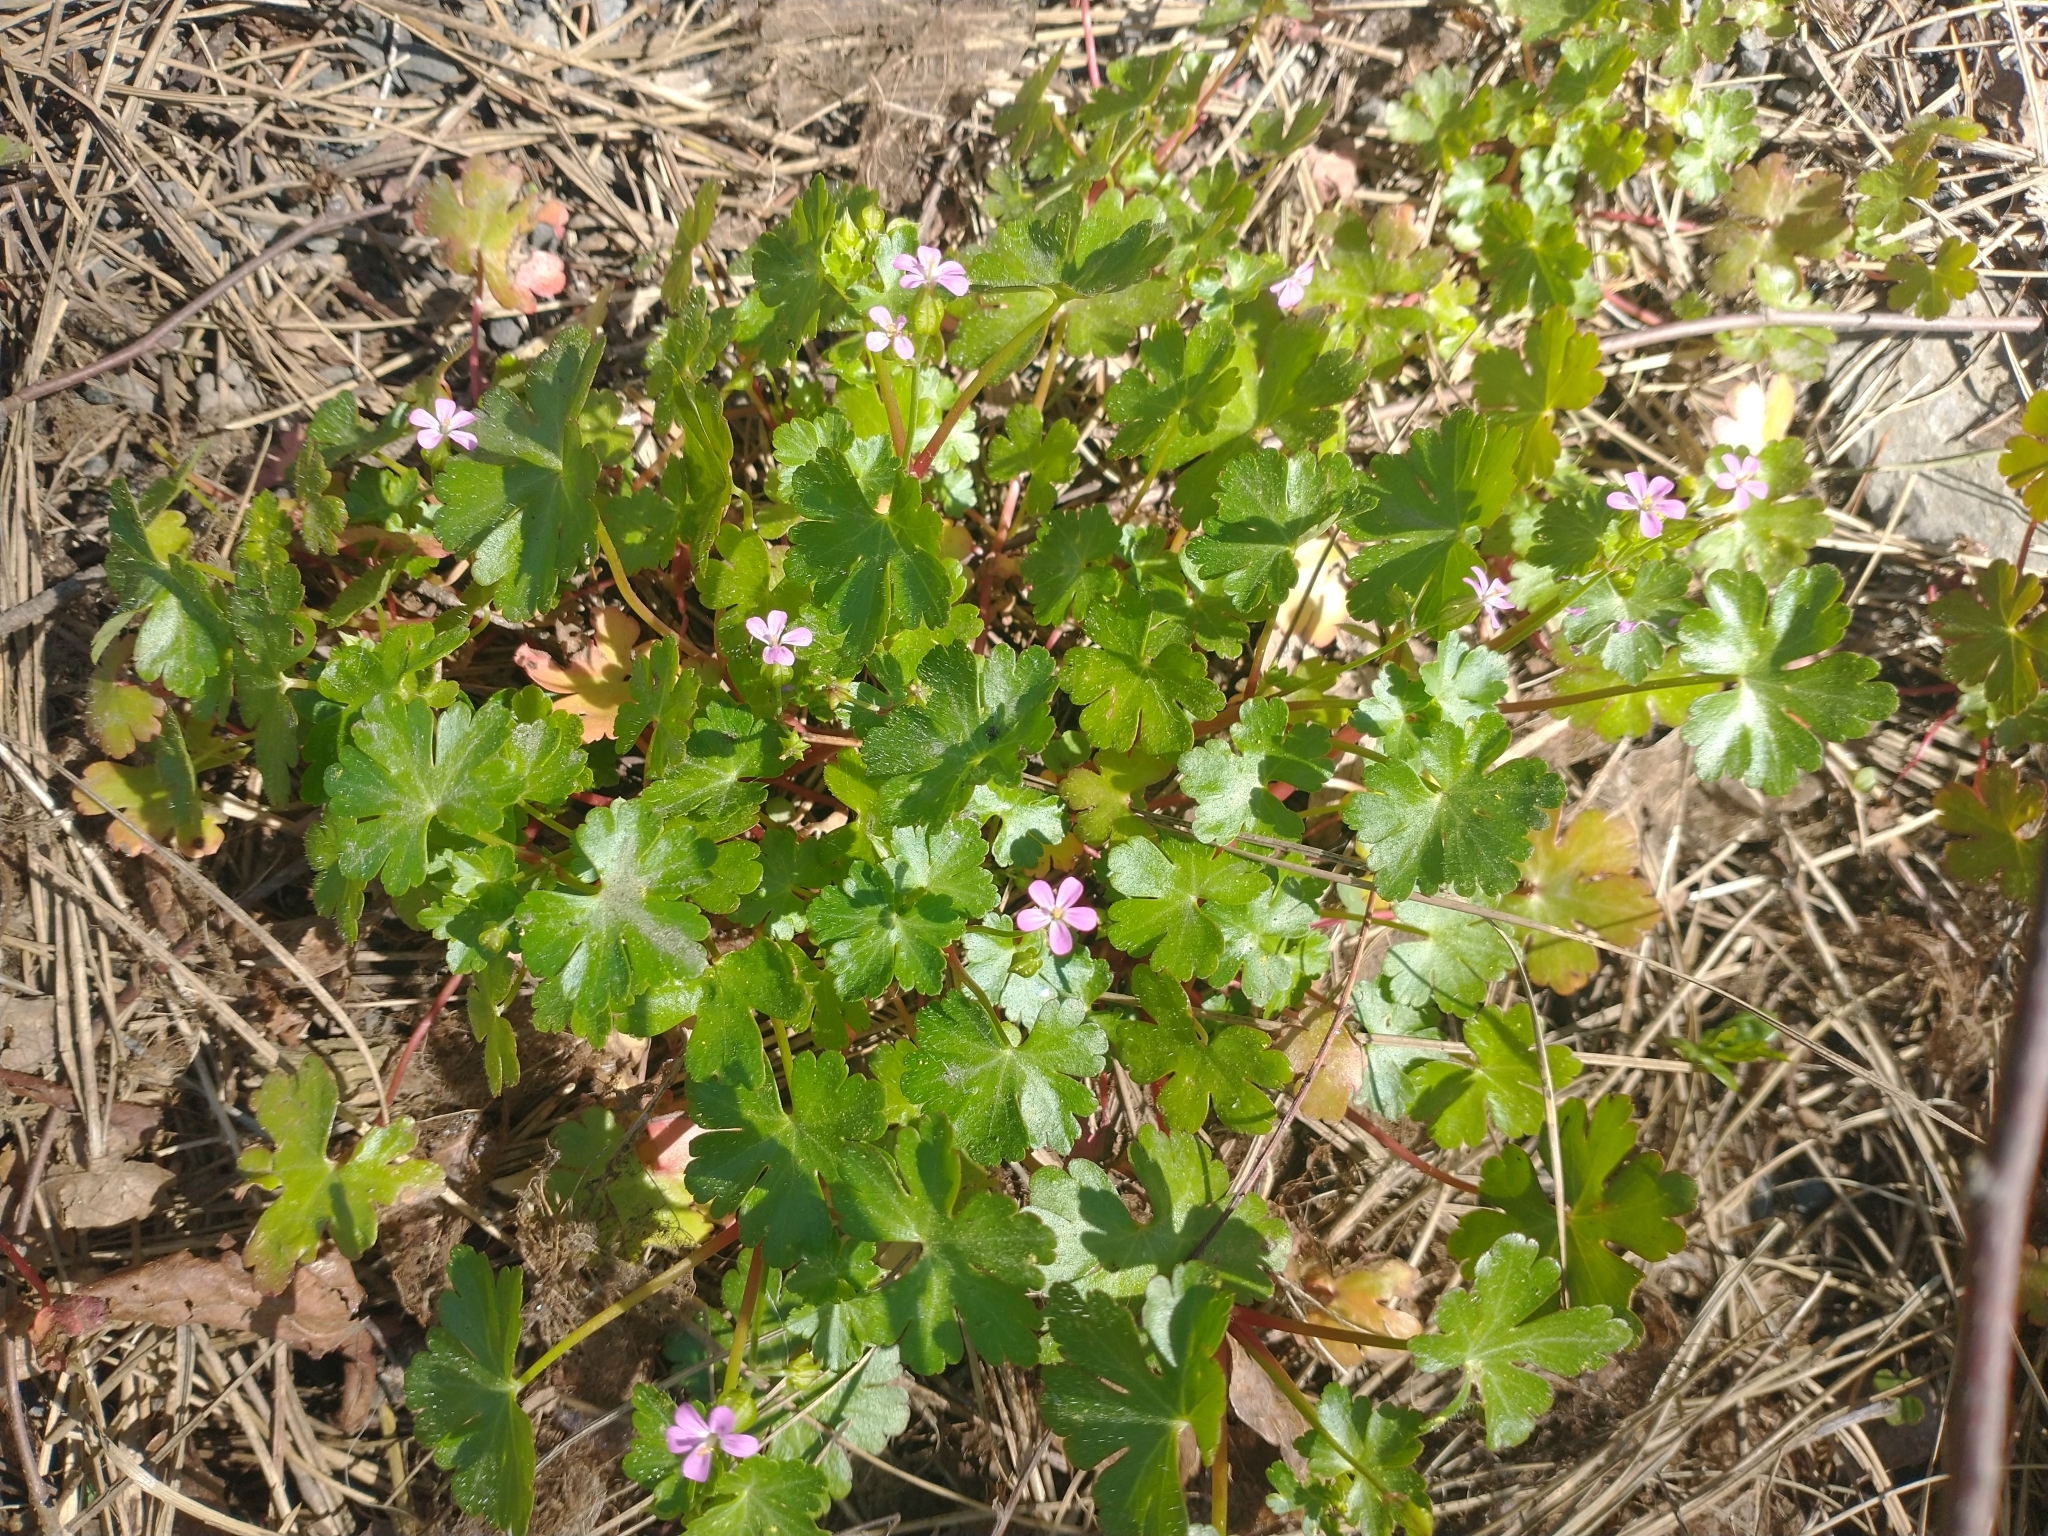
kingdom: Plantae
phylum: Tracheophyta
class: Magnoliopsida
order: Geraniales
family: Geraniaceae
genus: Geranium
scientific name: Geranium lucidum
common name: Shining crane's-bill
